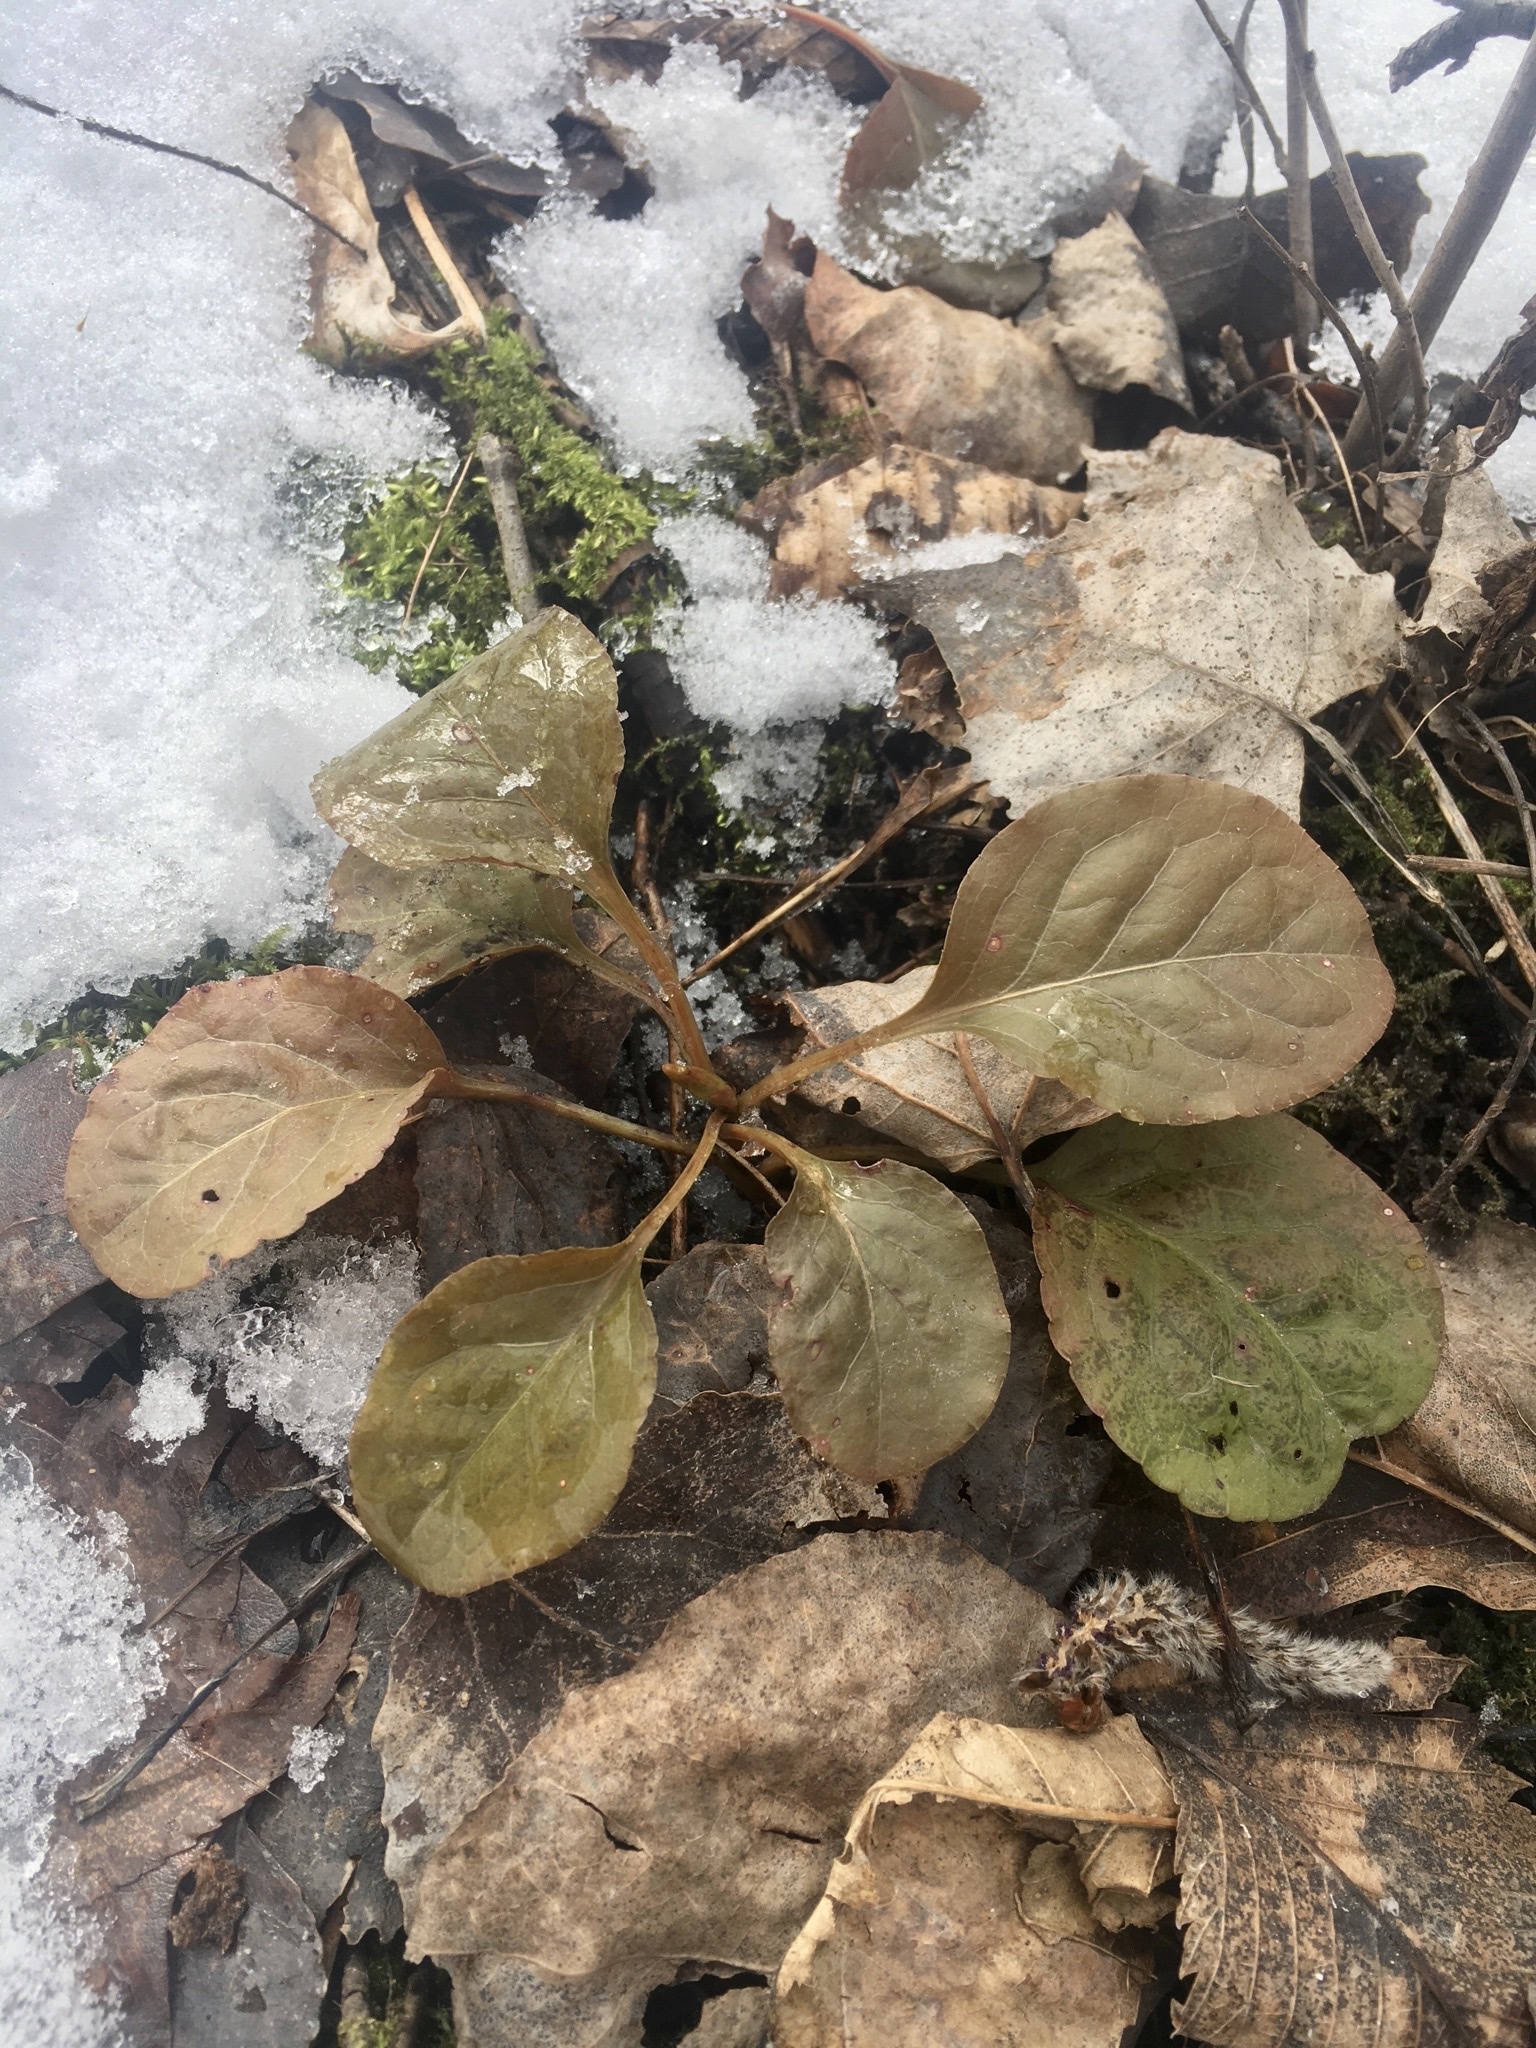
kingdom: Plantae
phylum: Tracheophyta
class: Magnoliopsida
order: Ericales
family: Ericaceae
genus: Pyrola
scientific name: Pyrola elliptica
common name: Shinleaf
